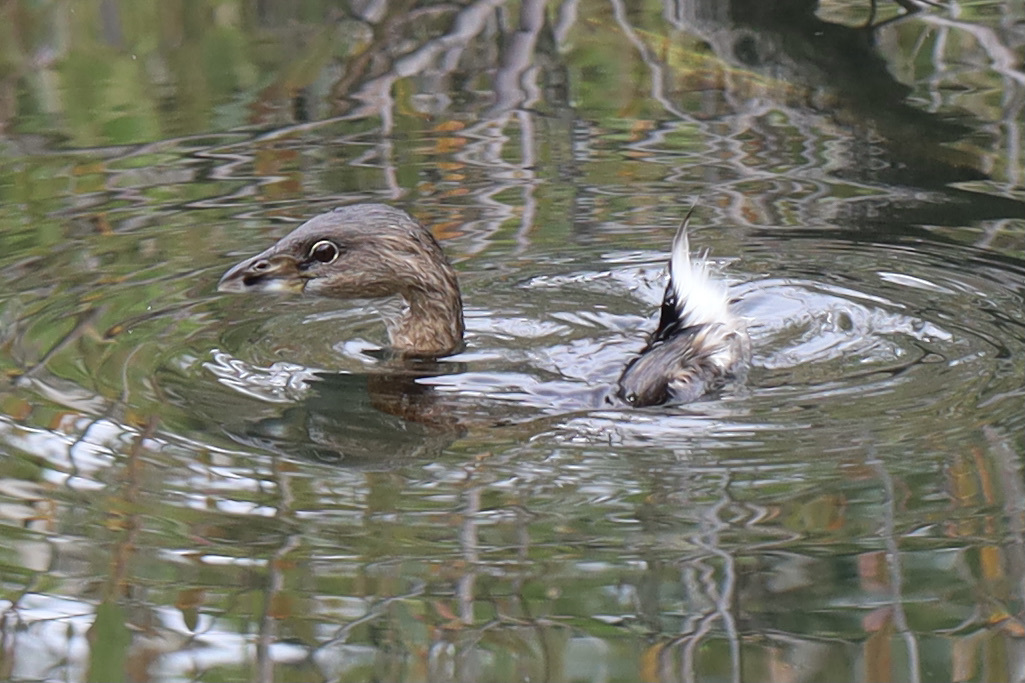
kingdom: Animalia
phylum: Chordata
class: Aves
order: Podicipediformes
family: Podicipedidae
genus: Podilymbus
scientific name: Podilymbus podiceps
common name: Pied-billed grebe
